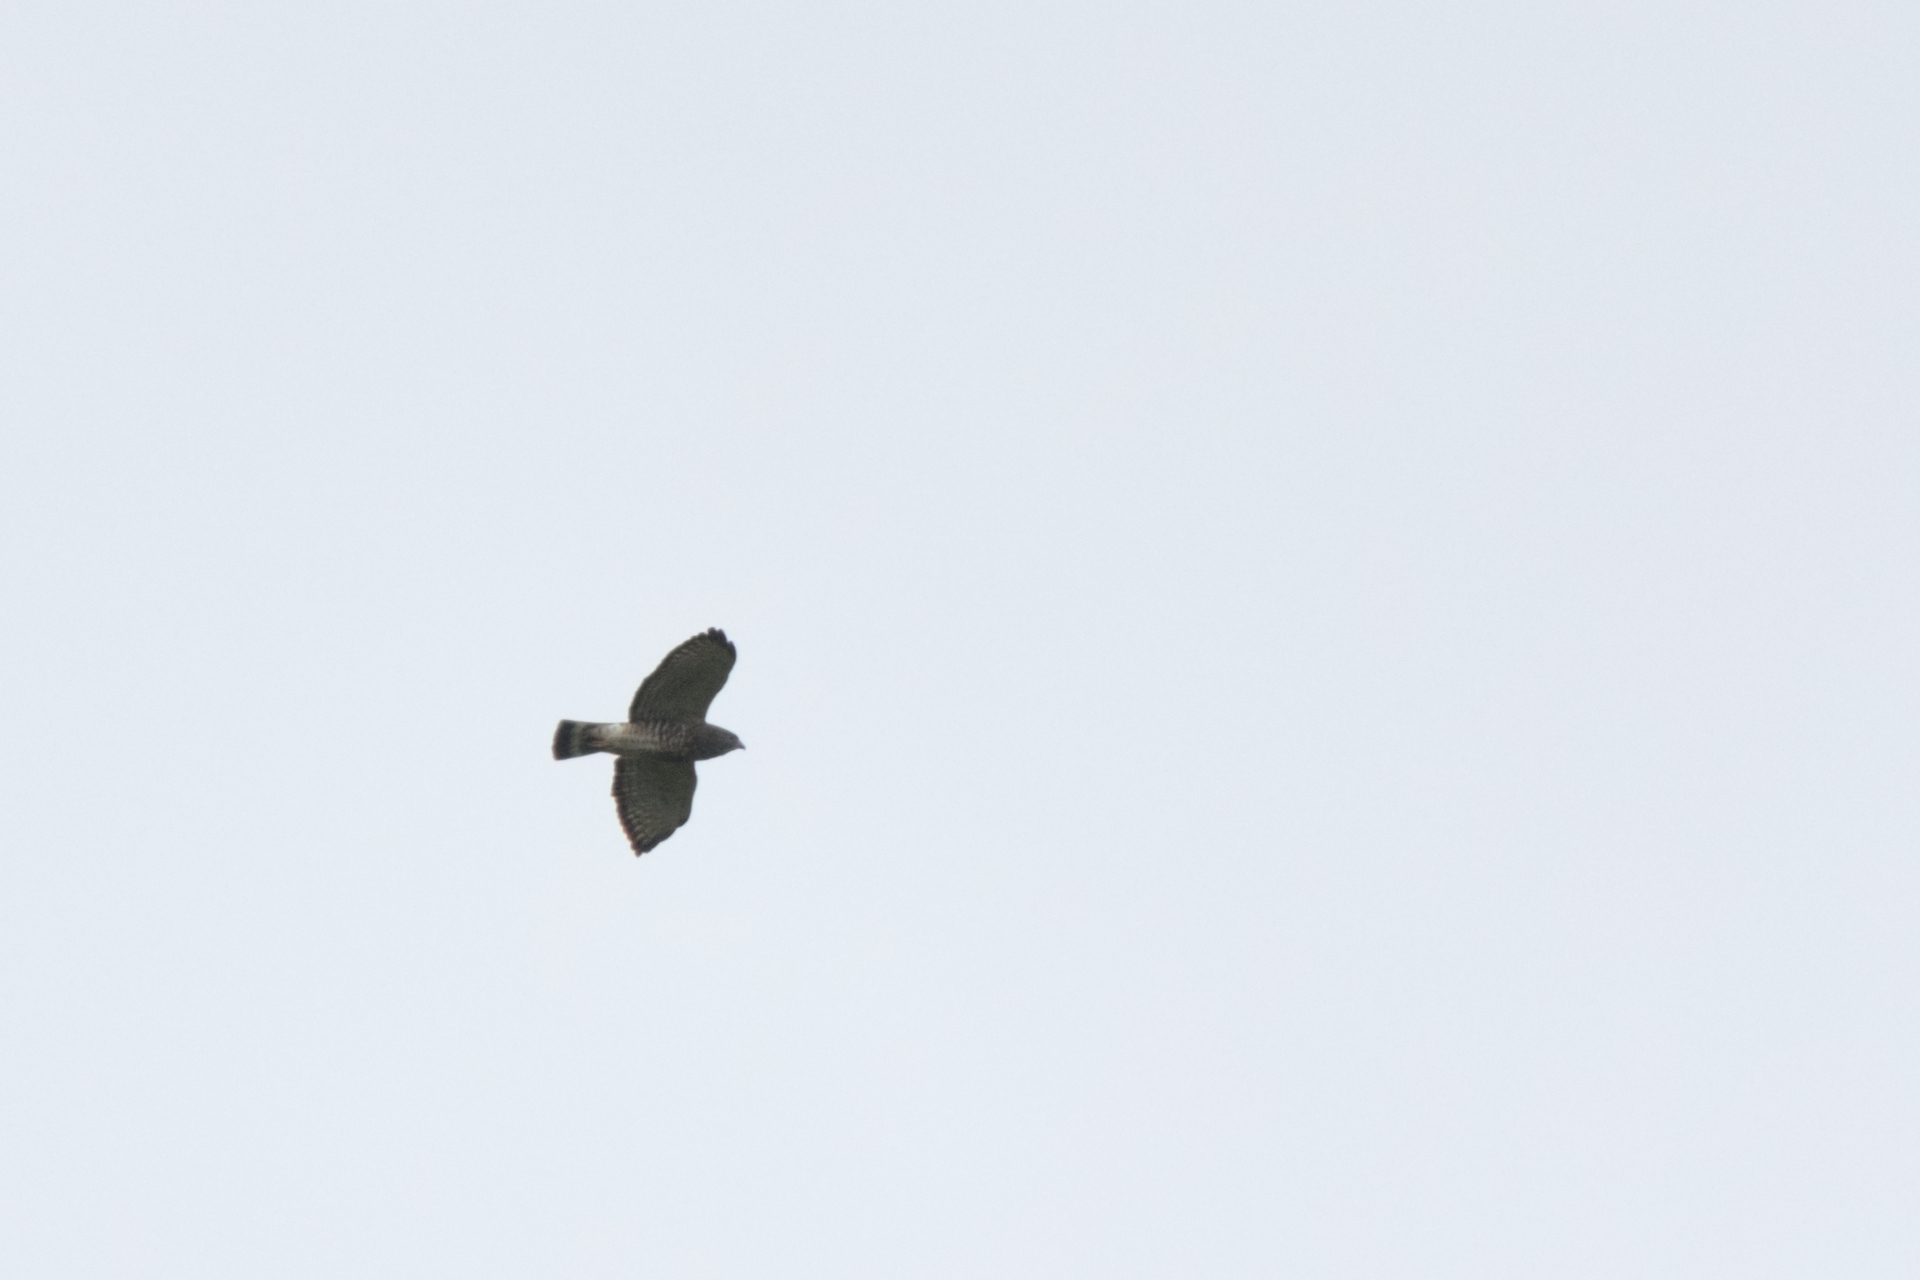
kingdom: Animalia
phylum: Chordata
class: Aves
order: Accipitriformes
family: Accipitridae
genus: Buteo
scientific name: Buteo platypterus
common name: Broad-winged hawk
